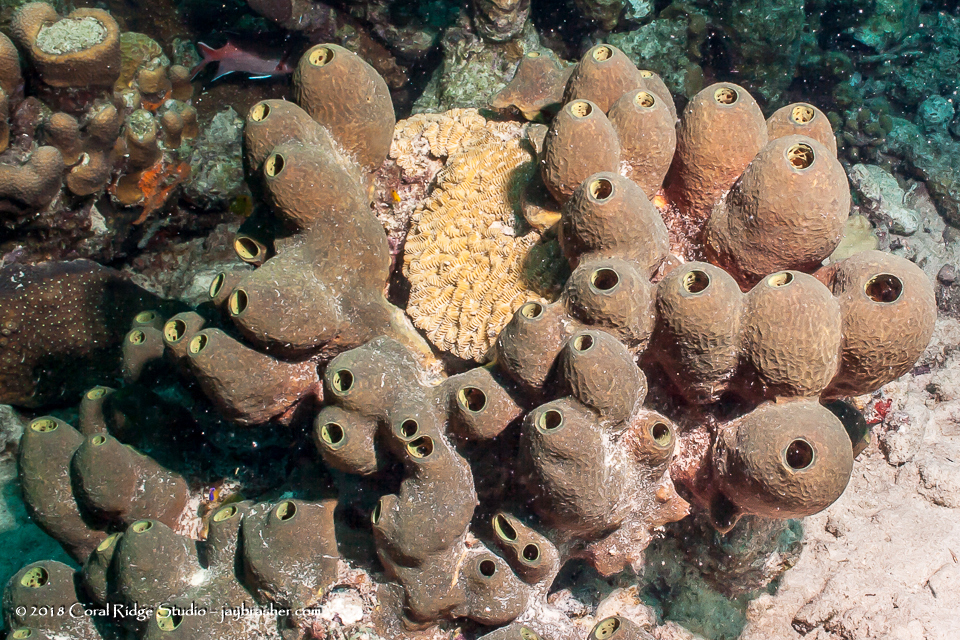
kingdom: Animalia
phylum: Porifera
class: Demospongiae
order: Verongiida
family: Aplysinidae
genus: Verongula
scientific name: Verongula reiswigi
